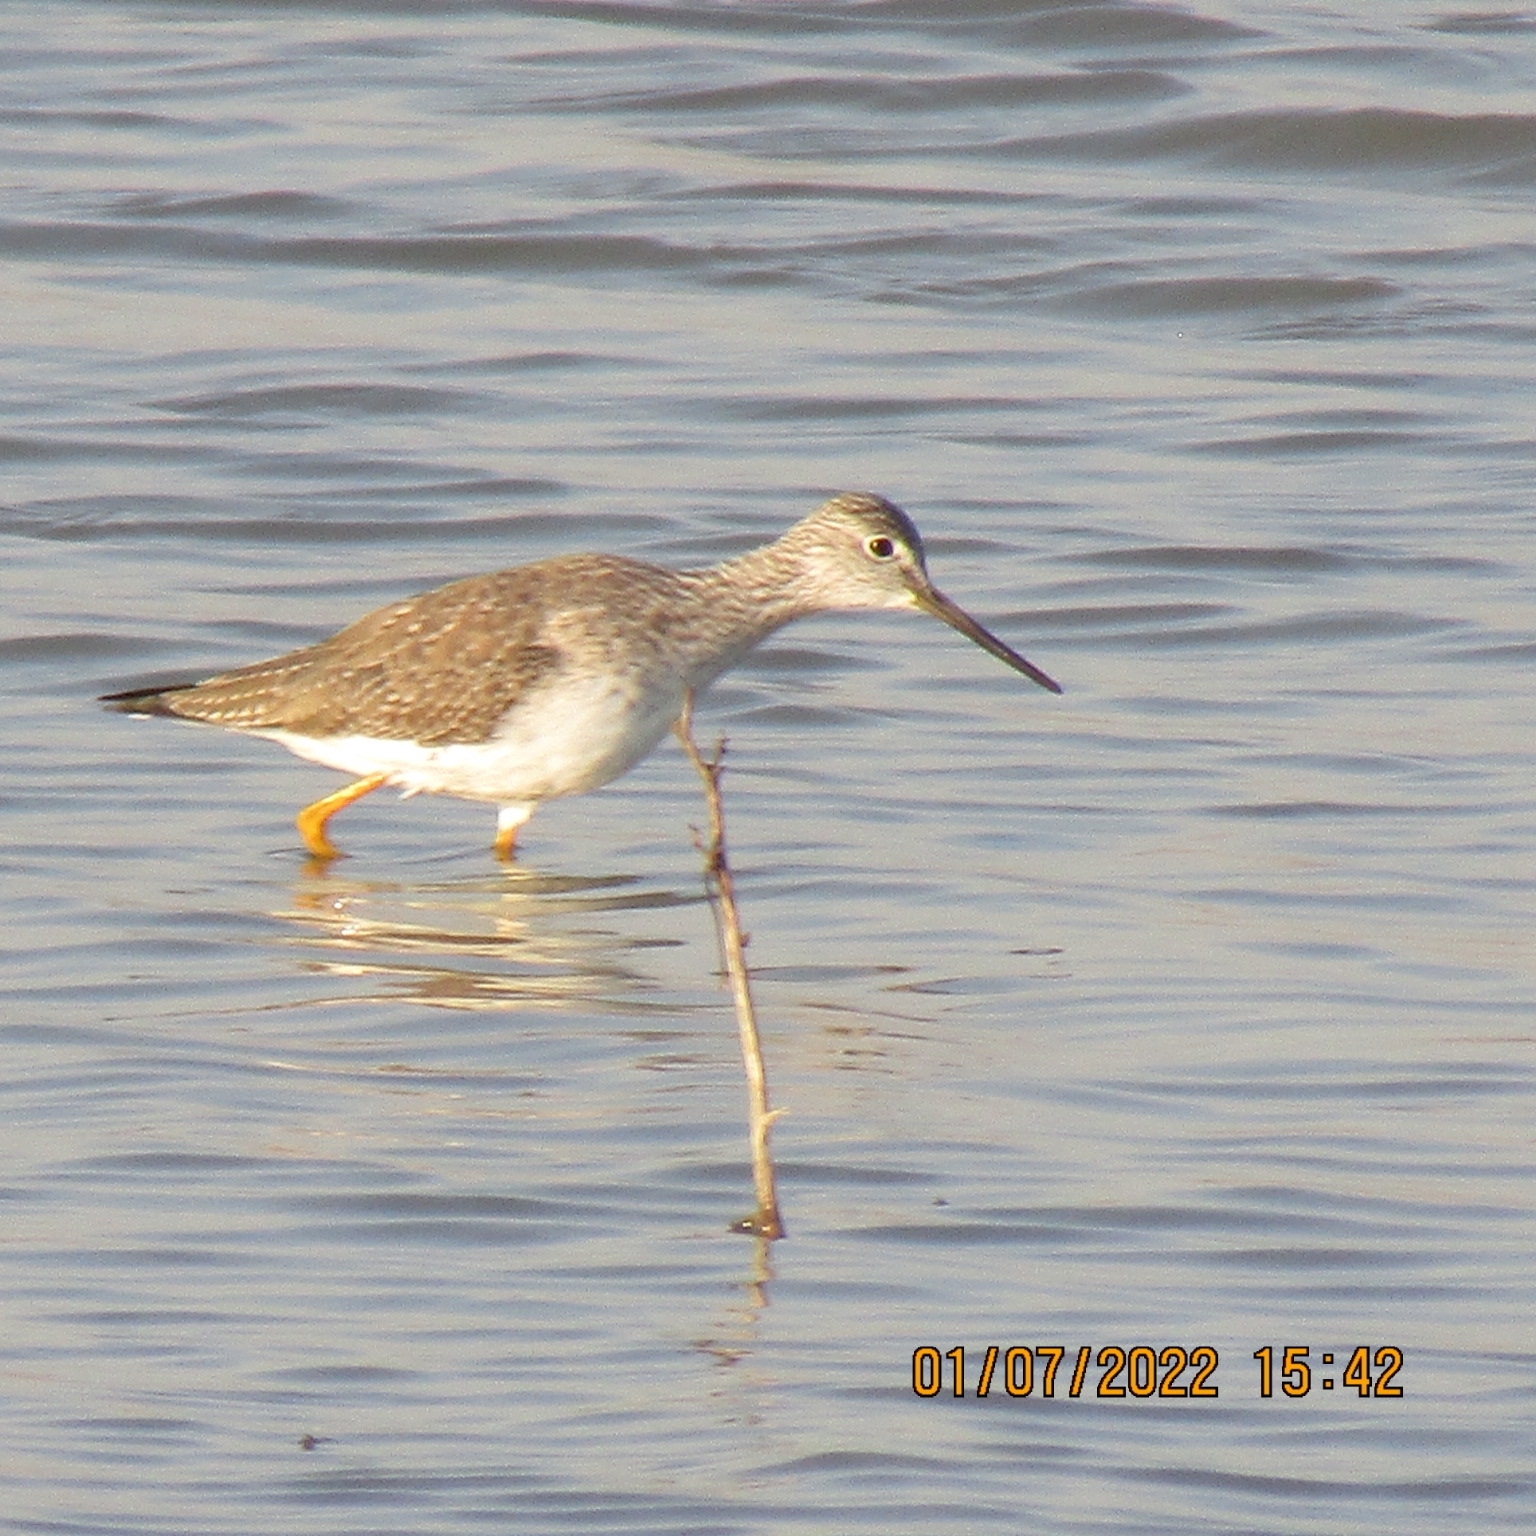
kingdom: Animalia
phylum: Chordata
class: Aves
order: Charadriiformes
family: Scolopacidae
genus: Tringa
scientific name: Tringa melanoleuca
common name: Greater yellowlegs
